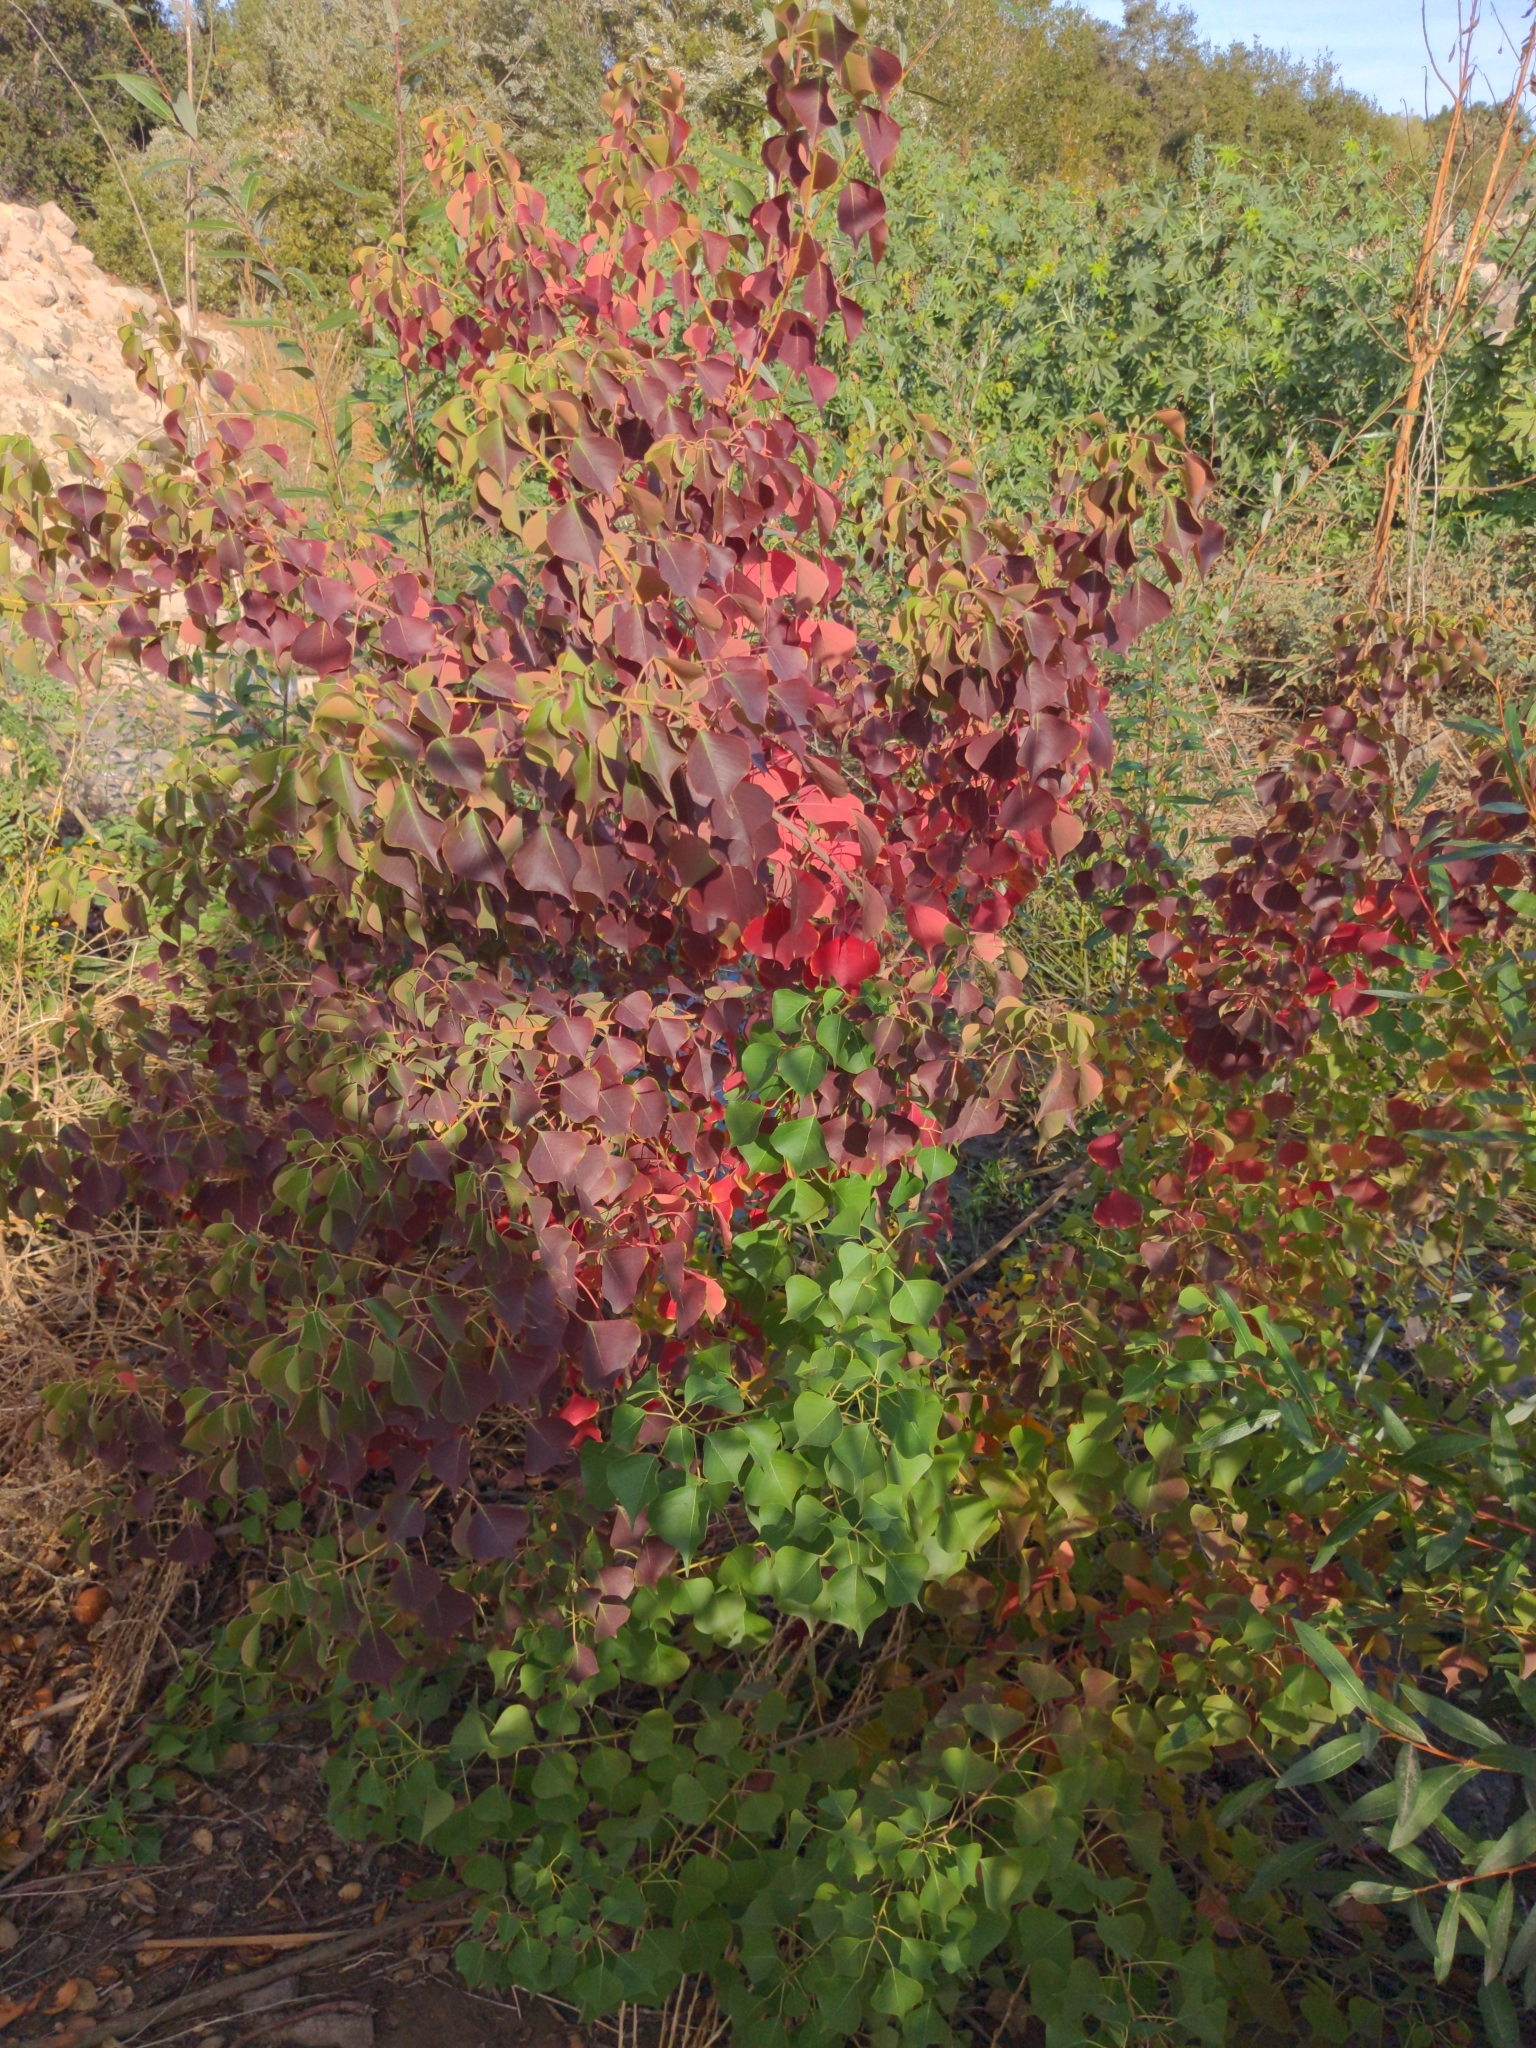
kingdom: Plantae
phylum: Tracheophyta
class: Magnoliopsida
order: Malpighiales
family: Euphorbiaceae
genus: Triadica
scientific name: Triadica sebifera
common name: Chinese tallow
